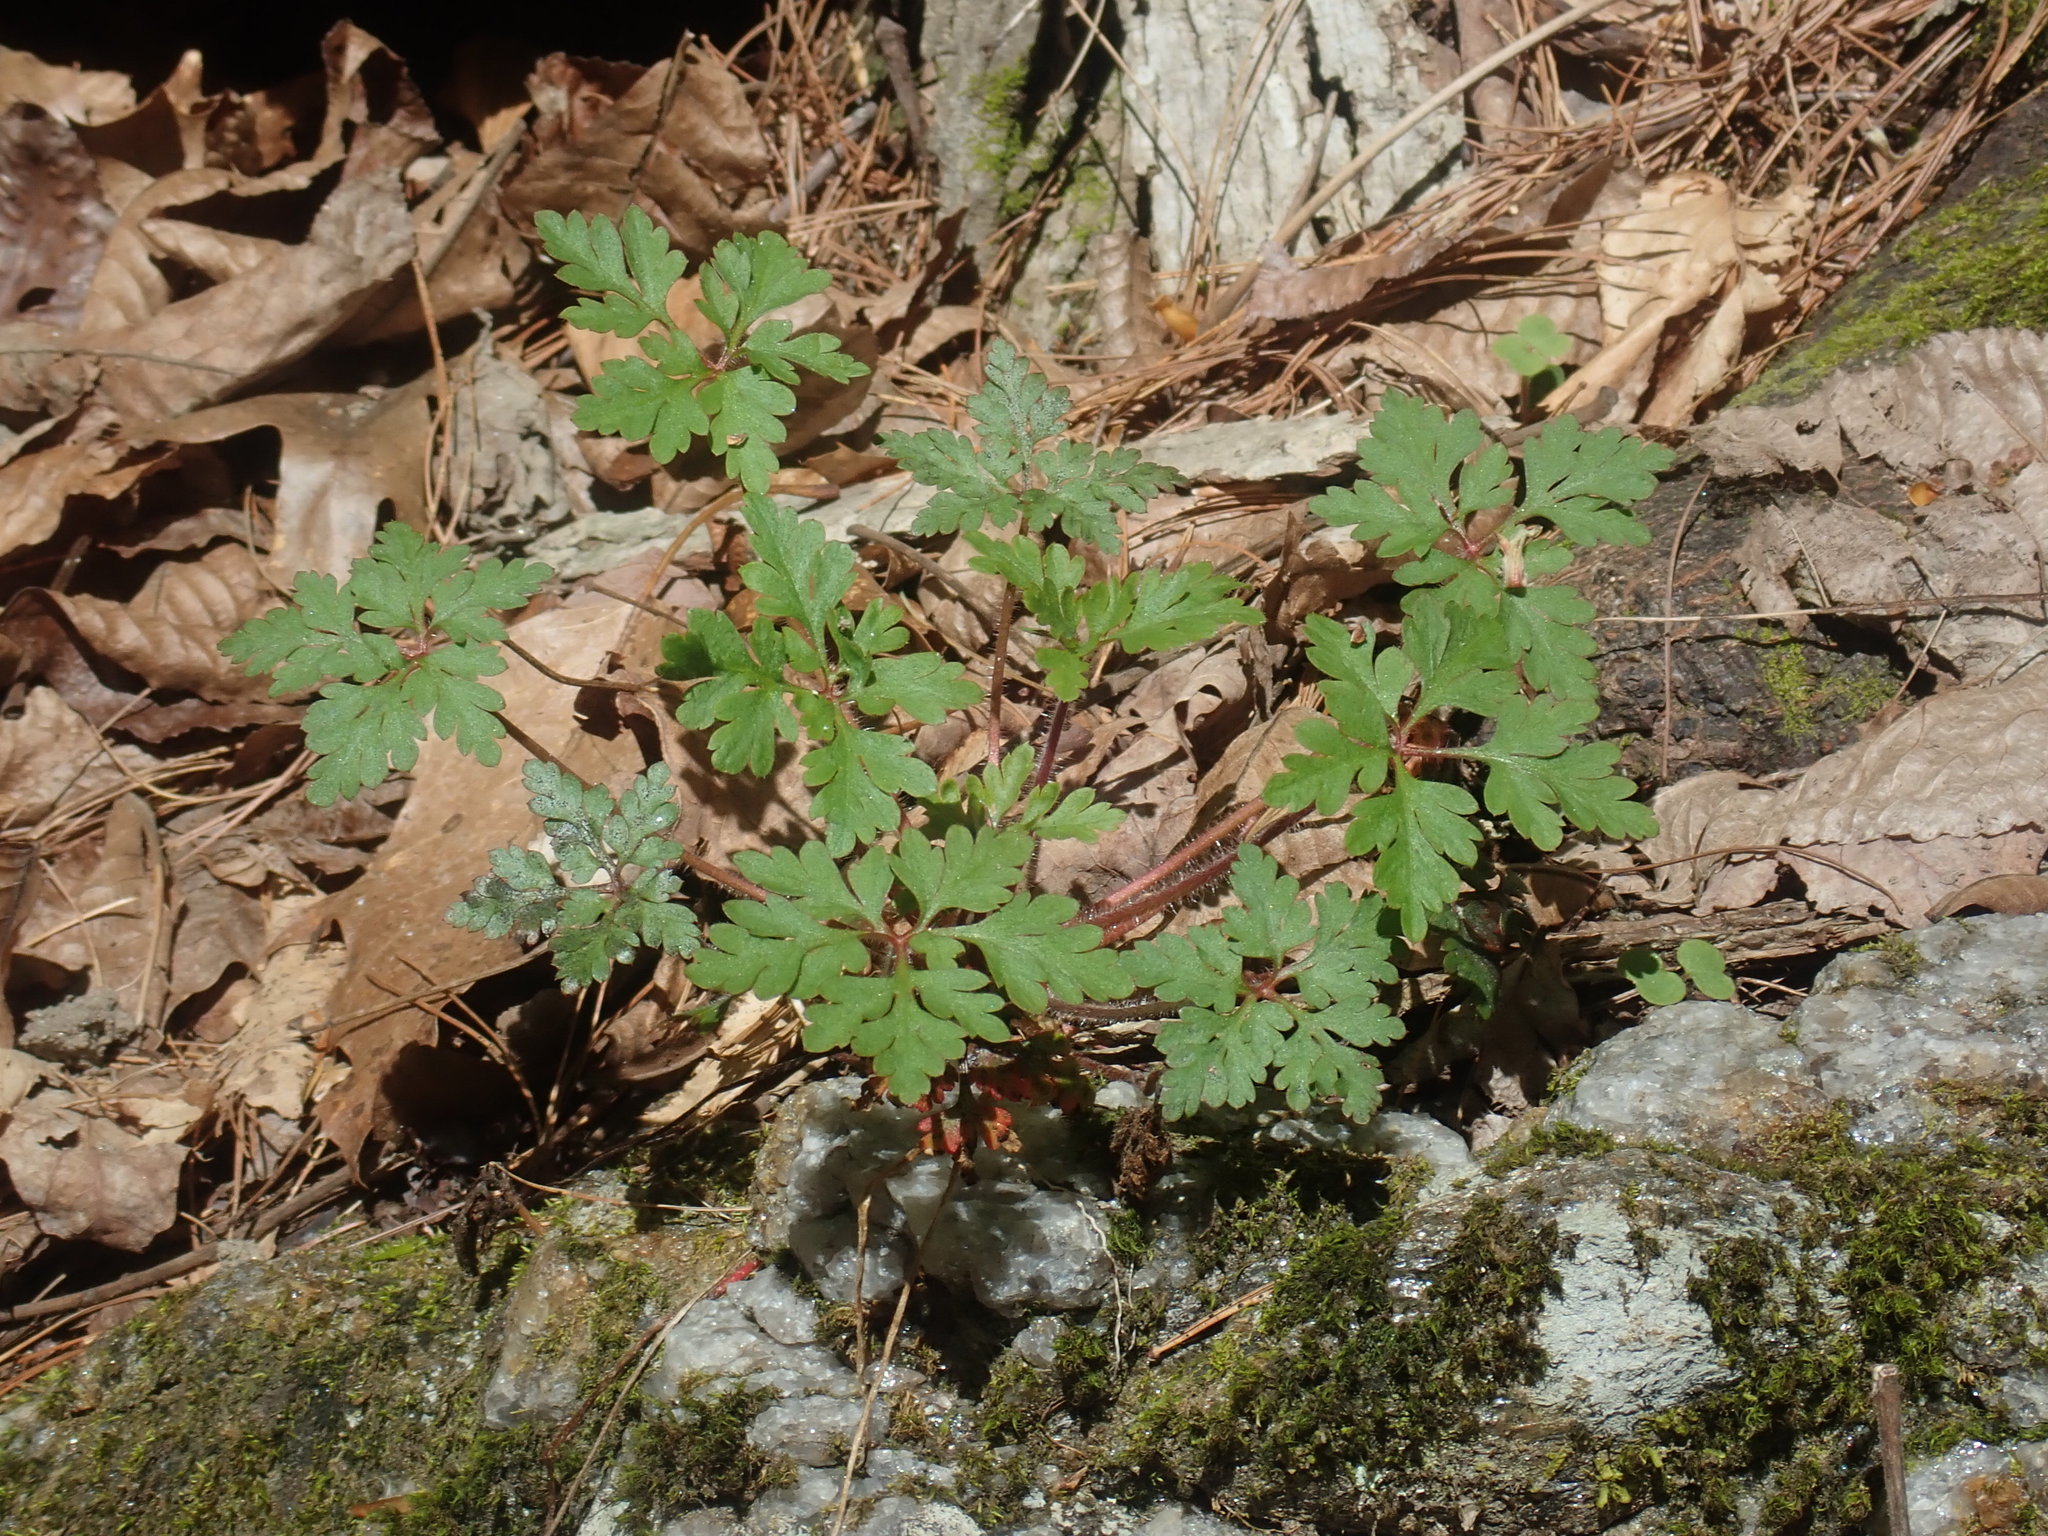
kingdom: Plantae
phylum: Tracheophyta
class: Magnoliopsida
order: Geraniales
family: Geraniaceae
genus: Geranium
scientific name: Geranium robertianum
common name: Herb-robert
